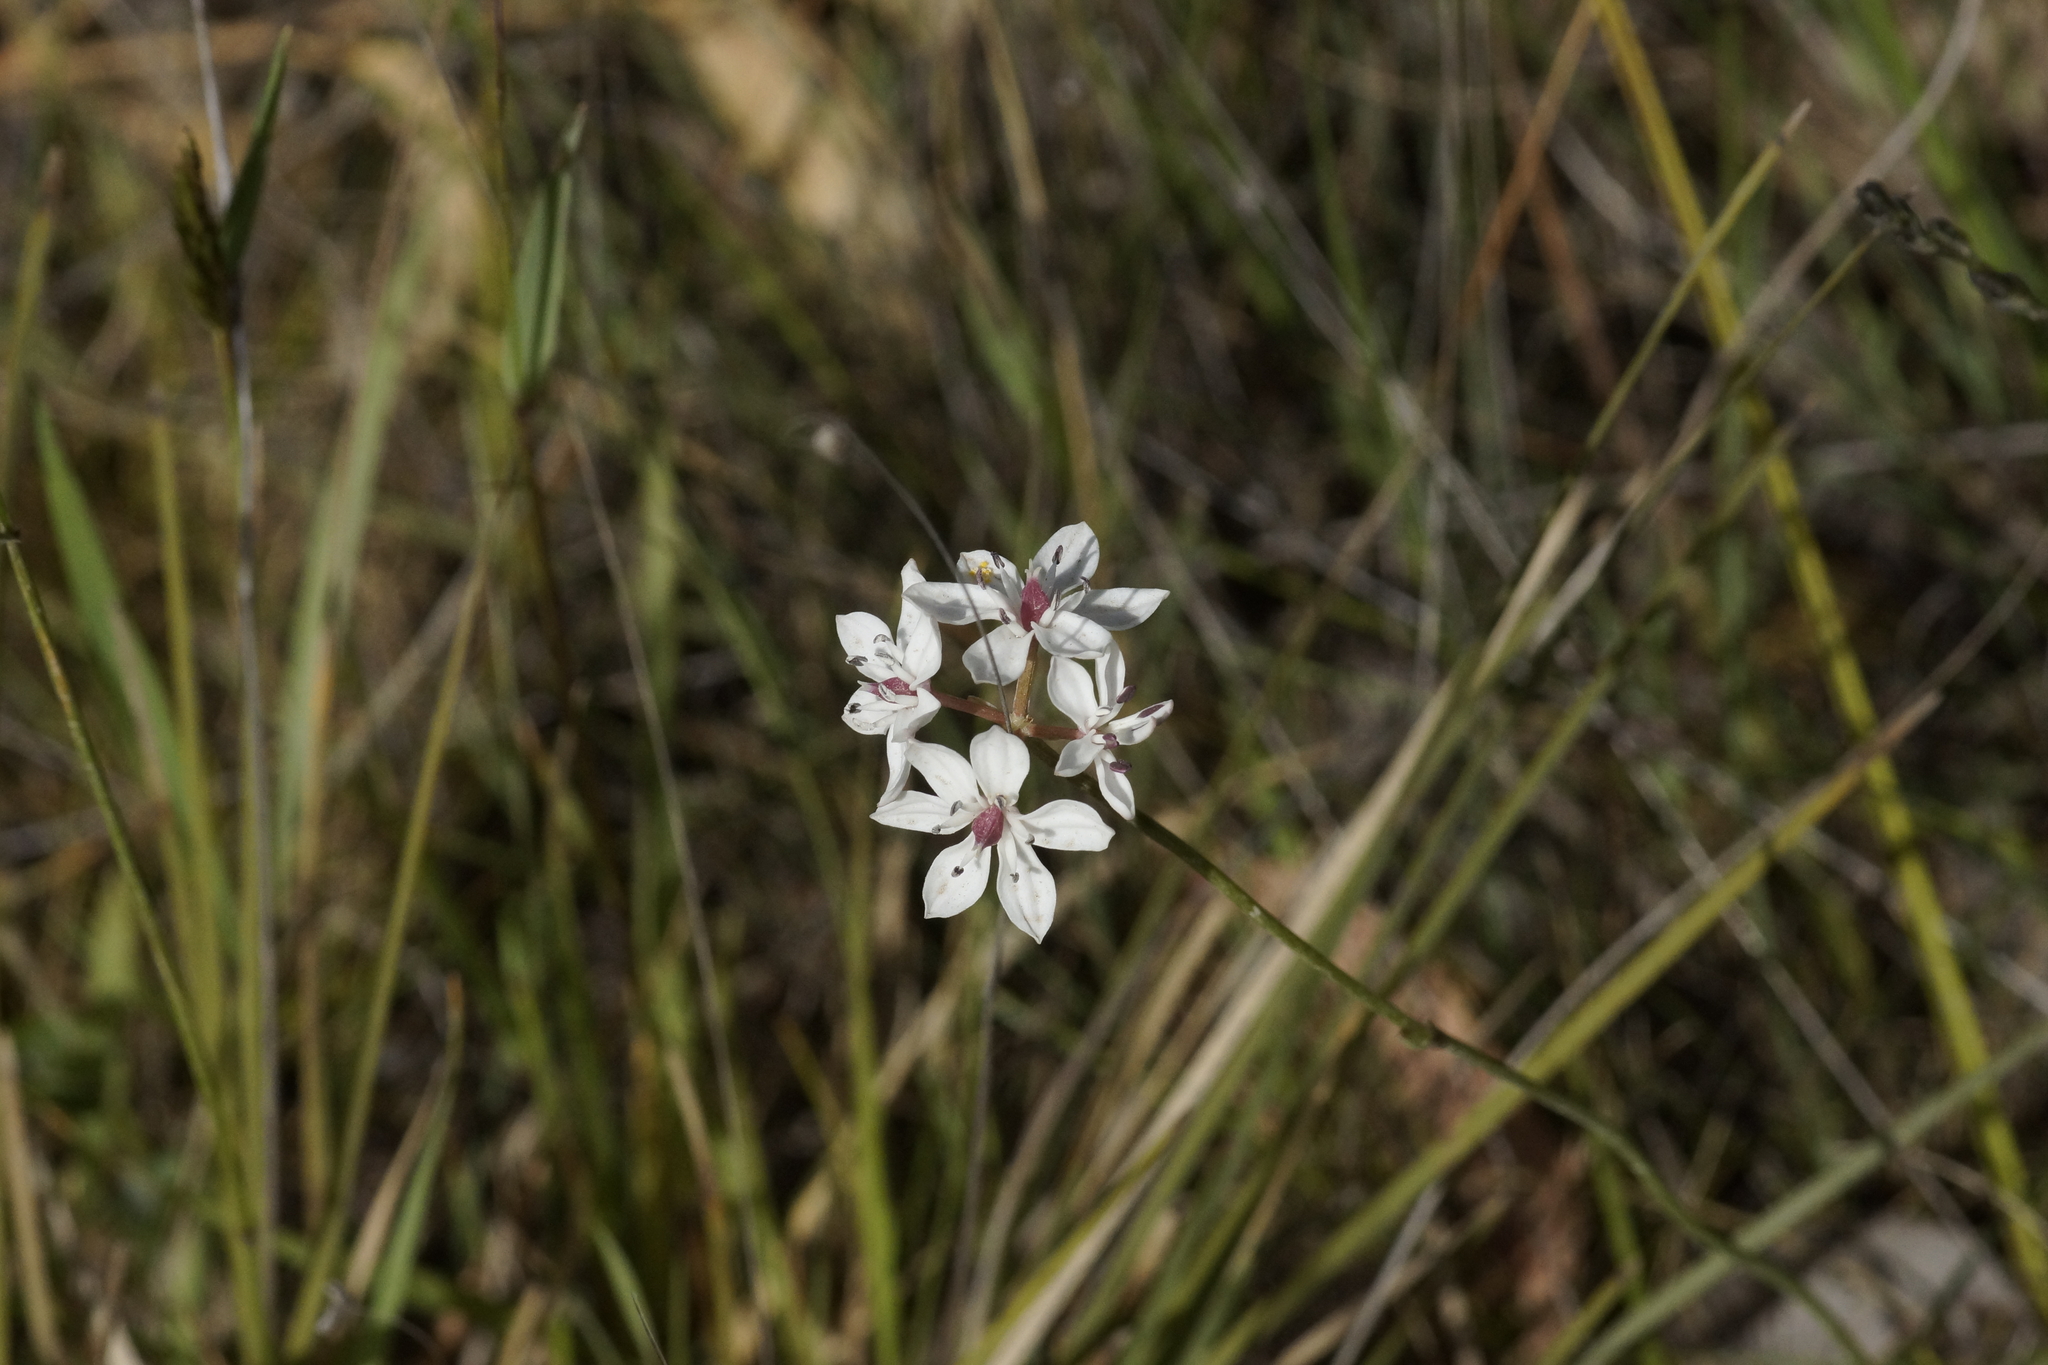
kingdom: Plantae
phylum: Tracheophyta
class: Liliopsida
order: Liliales
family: Colchicaceae
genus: Burchardia
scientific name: Burchardia umbellata
